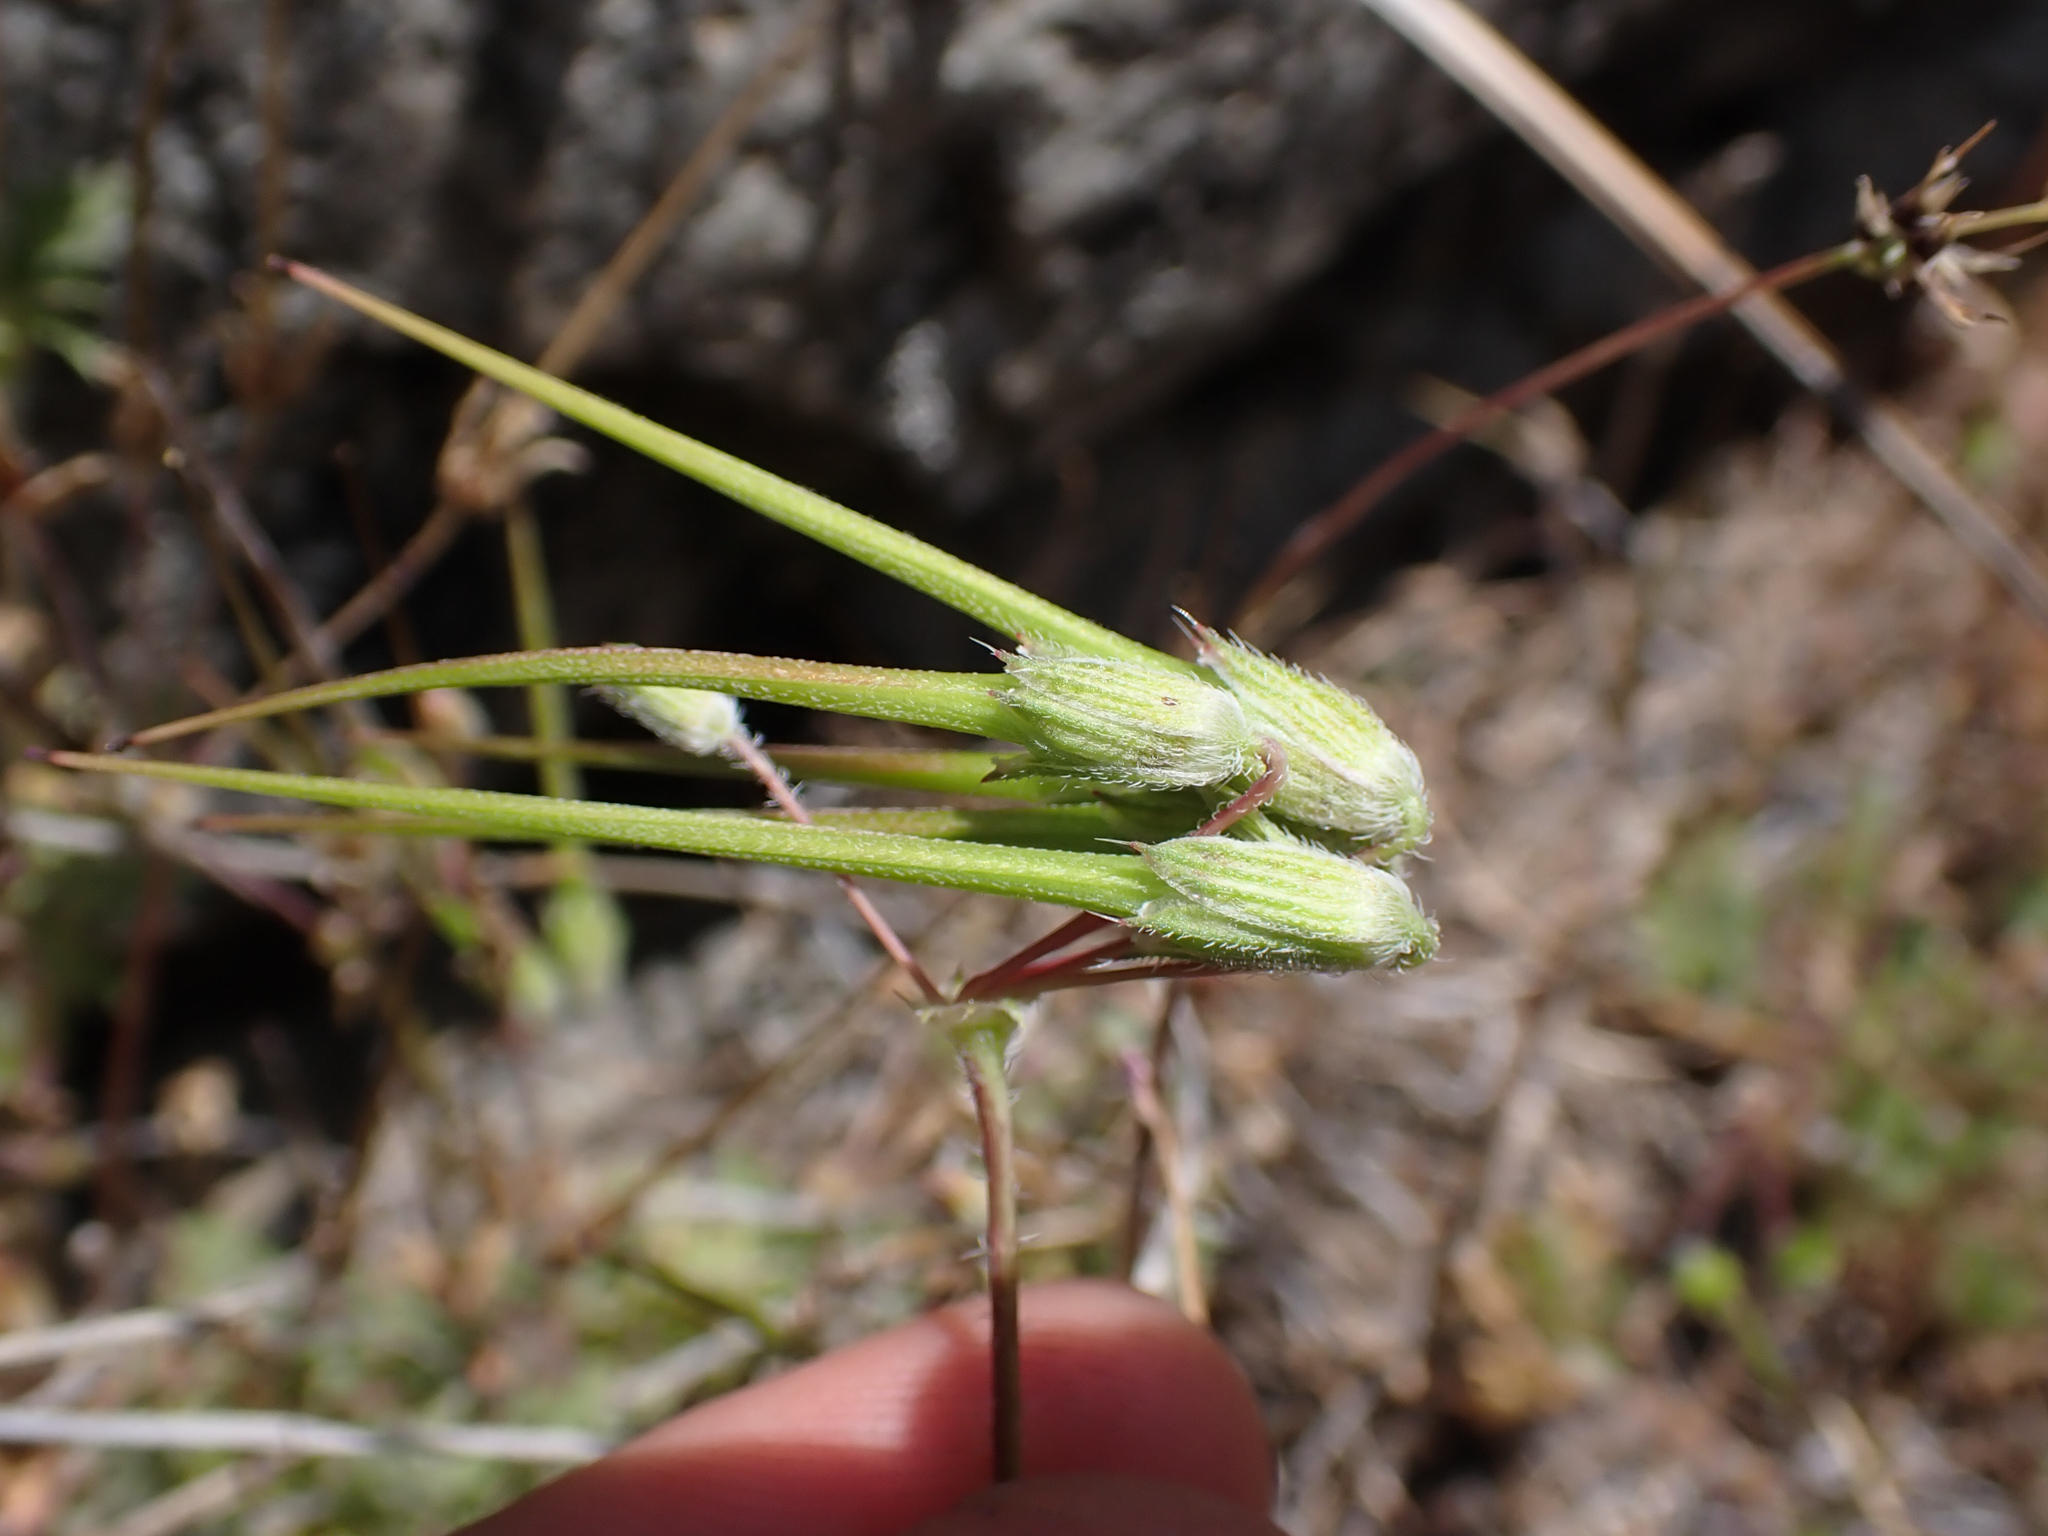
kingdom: Plantae
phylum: Tracheophyta
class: Magnoliopsida
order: Geraniales
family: Geraniaceae
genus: Erodium
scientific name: Erodium cicutarium
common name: Common stork's-bill
